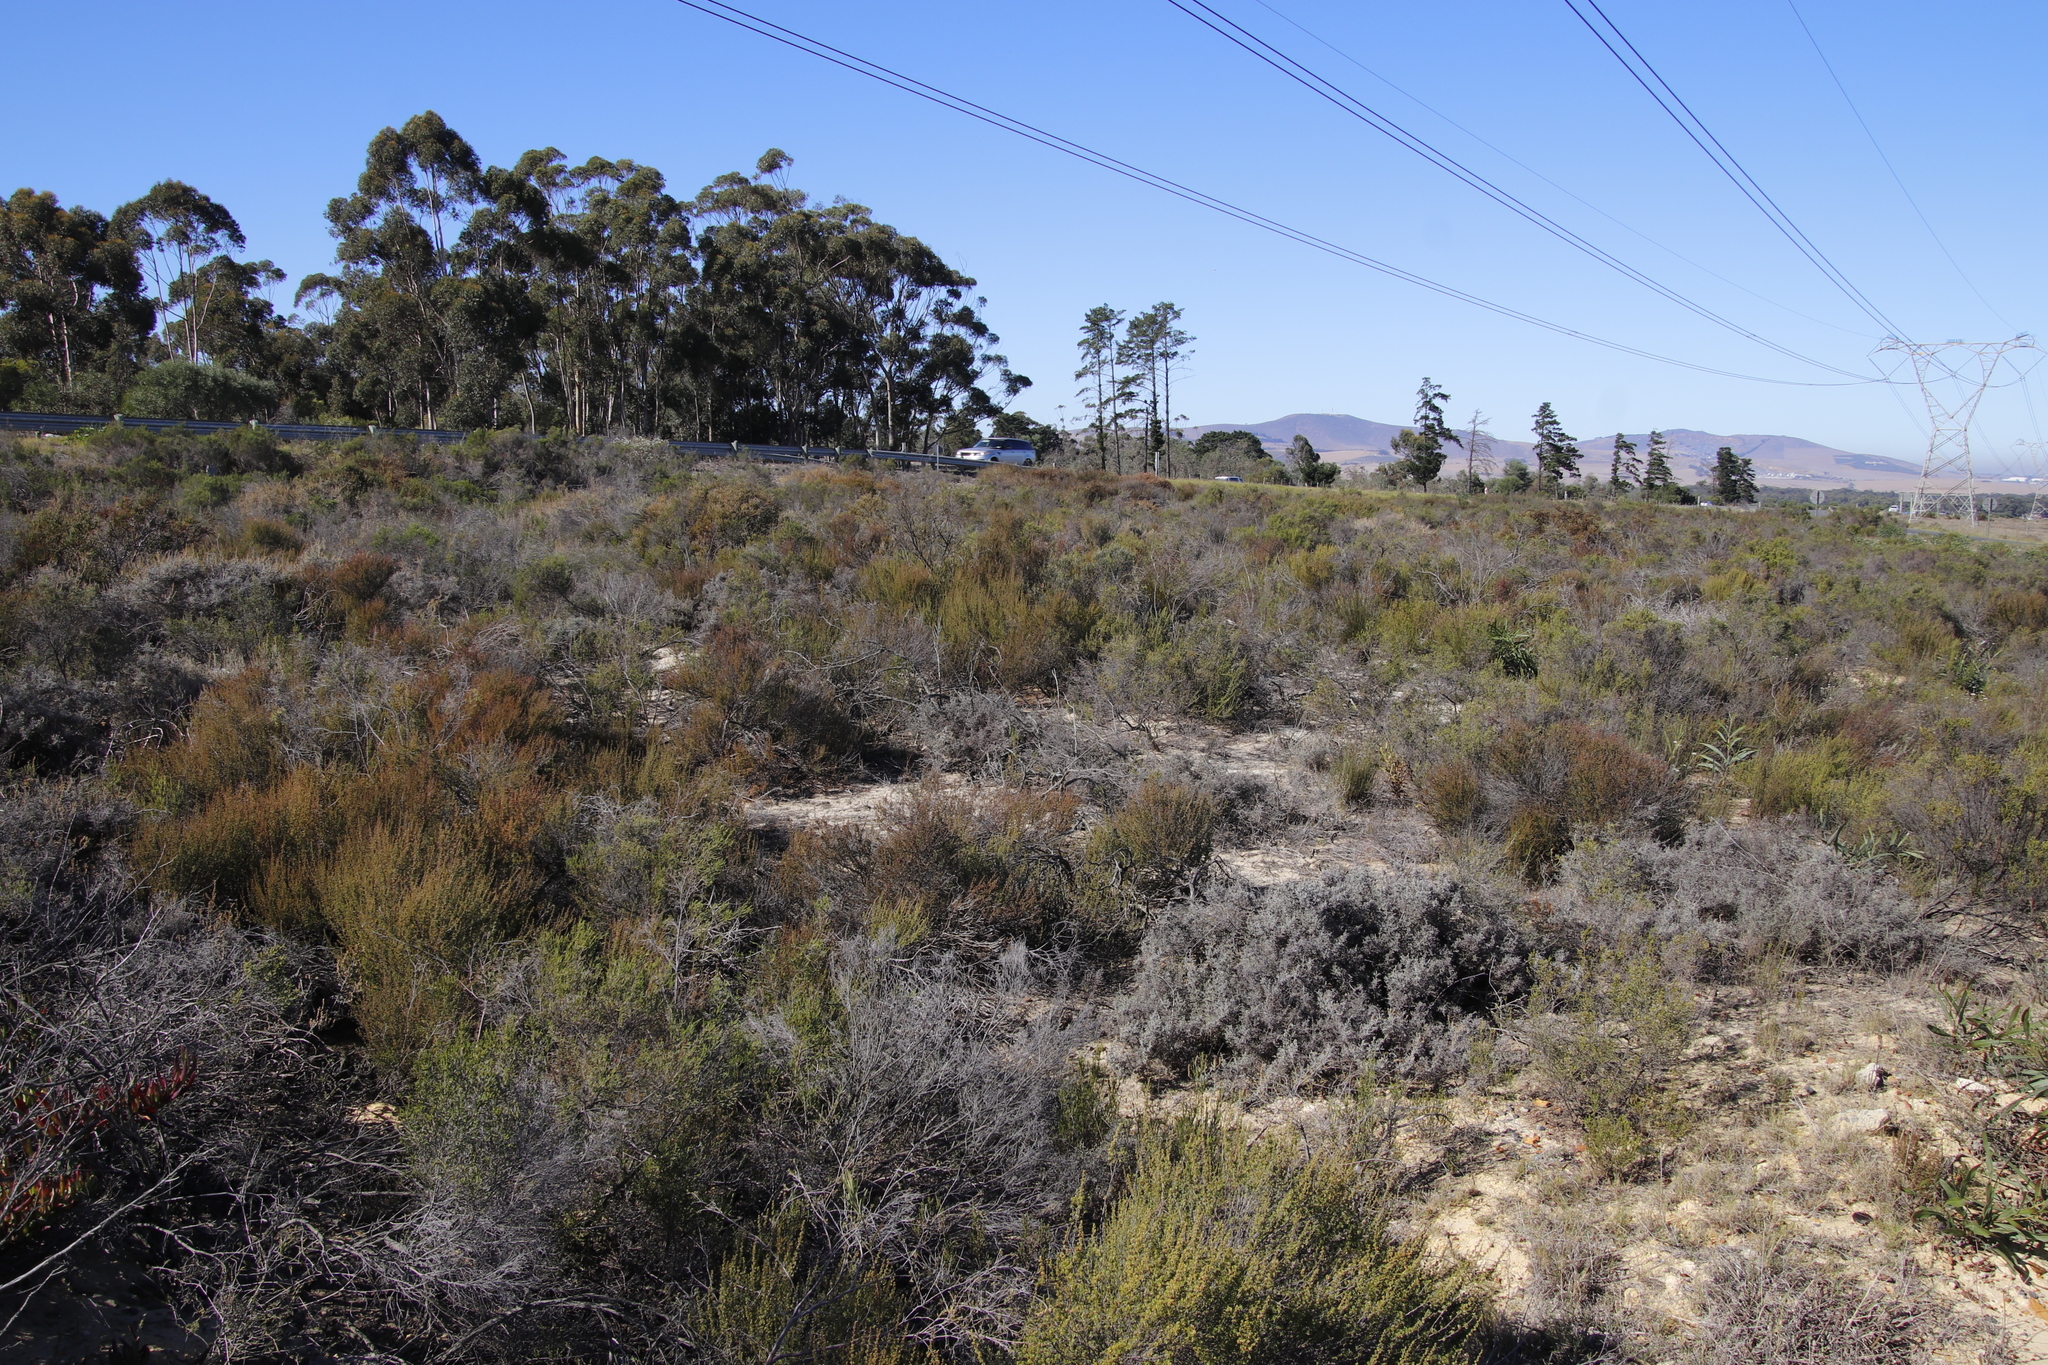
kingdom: Plantae
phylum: Tracheophyta
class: Magnoliopsida
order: Rosales
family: Rosaceae
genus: Cliffortia
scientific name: Cliffortia falcata
